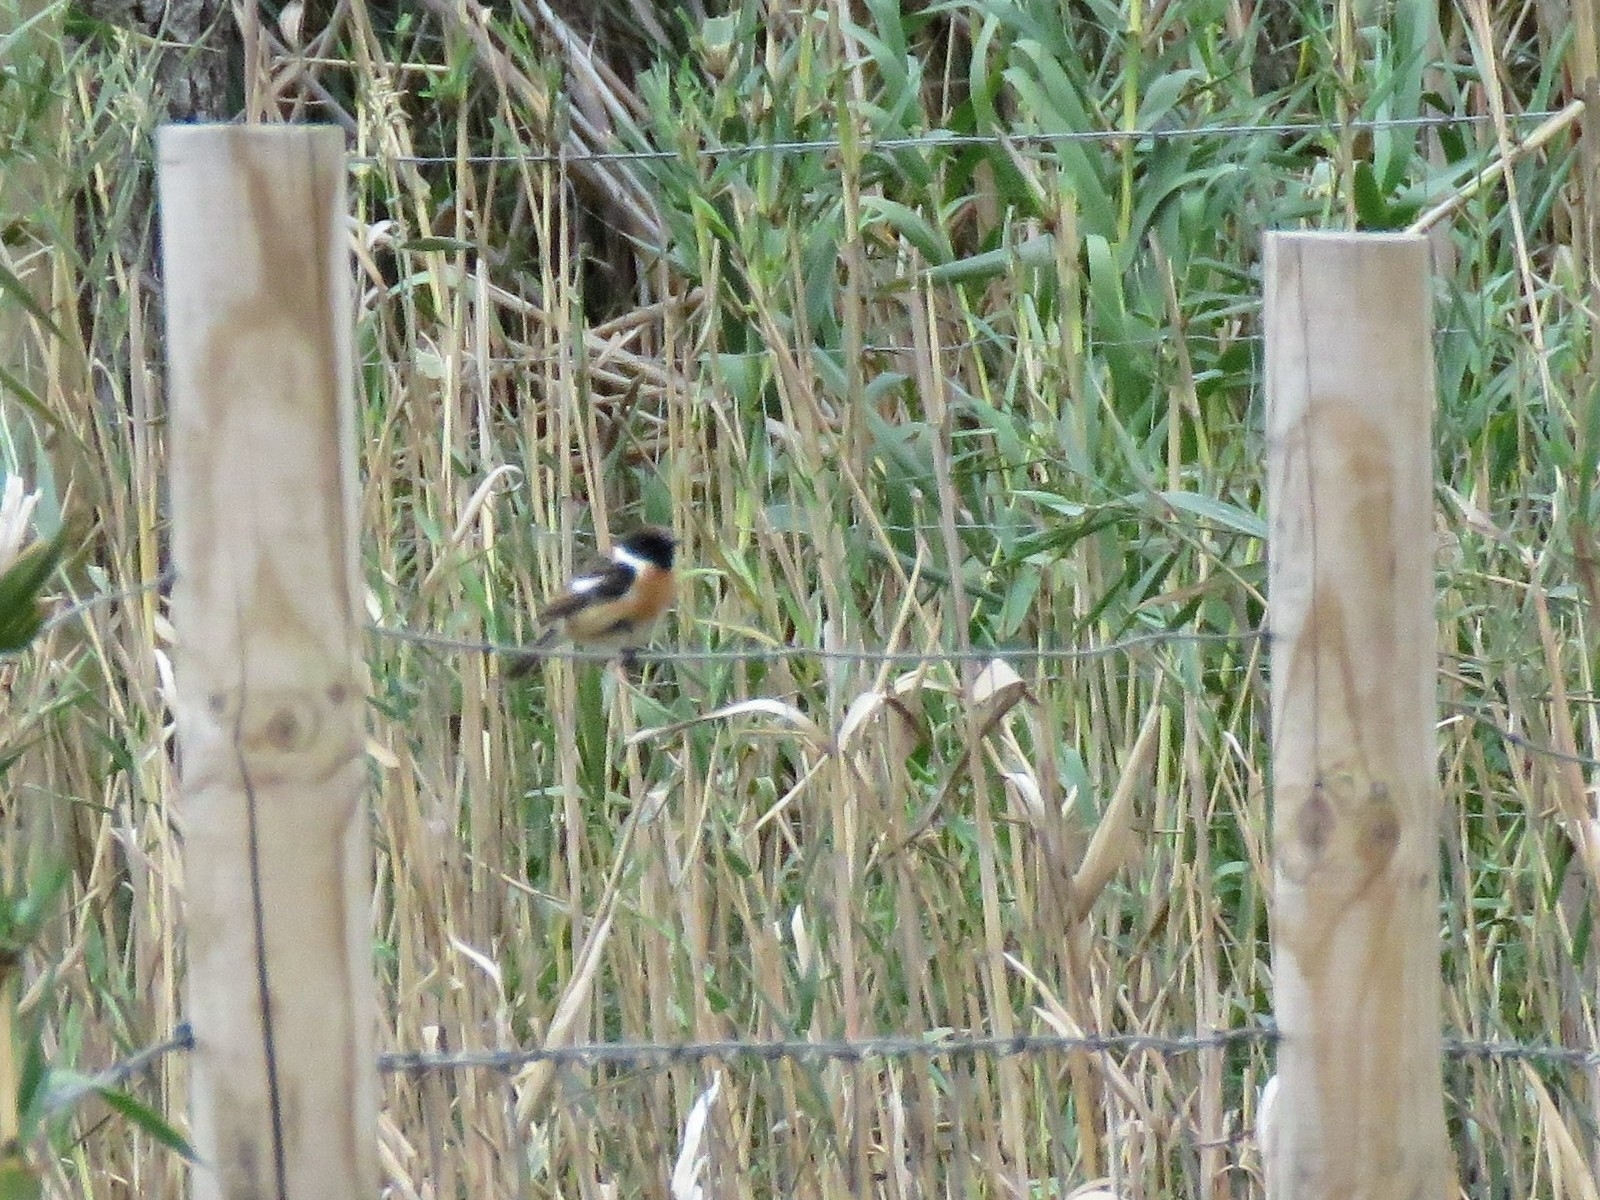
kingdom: Animalia
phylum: Chordata
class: Aves
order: Passeriformes
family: Muscicapidae
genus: Saxicola
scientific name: Saxicola rubicola
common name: European stonechat
